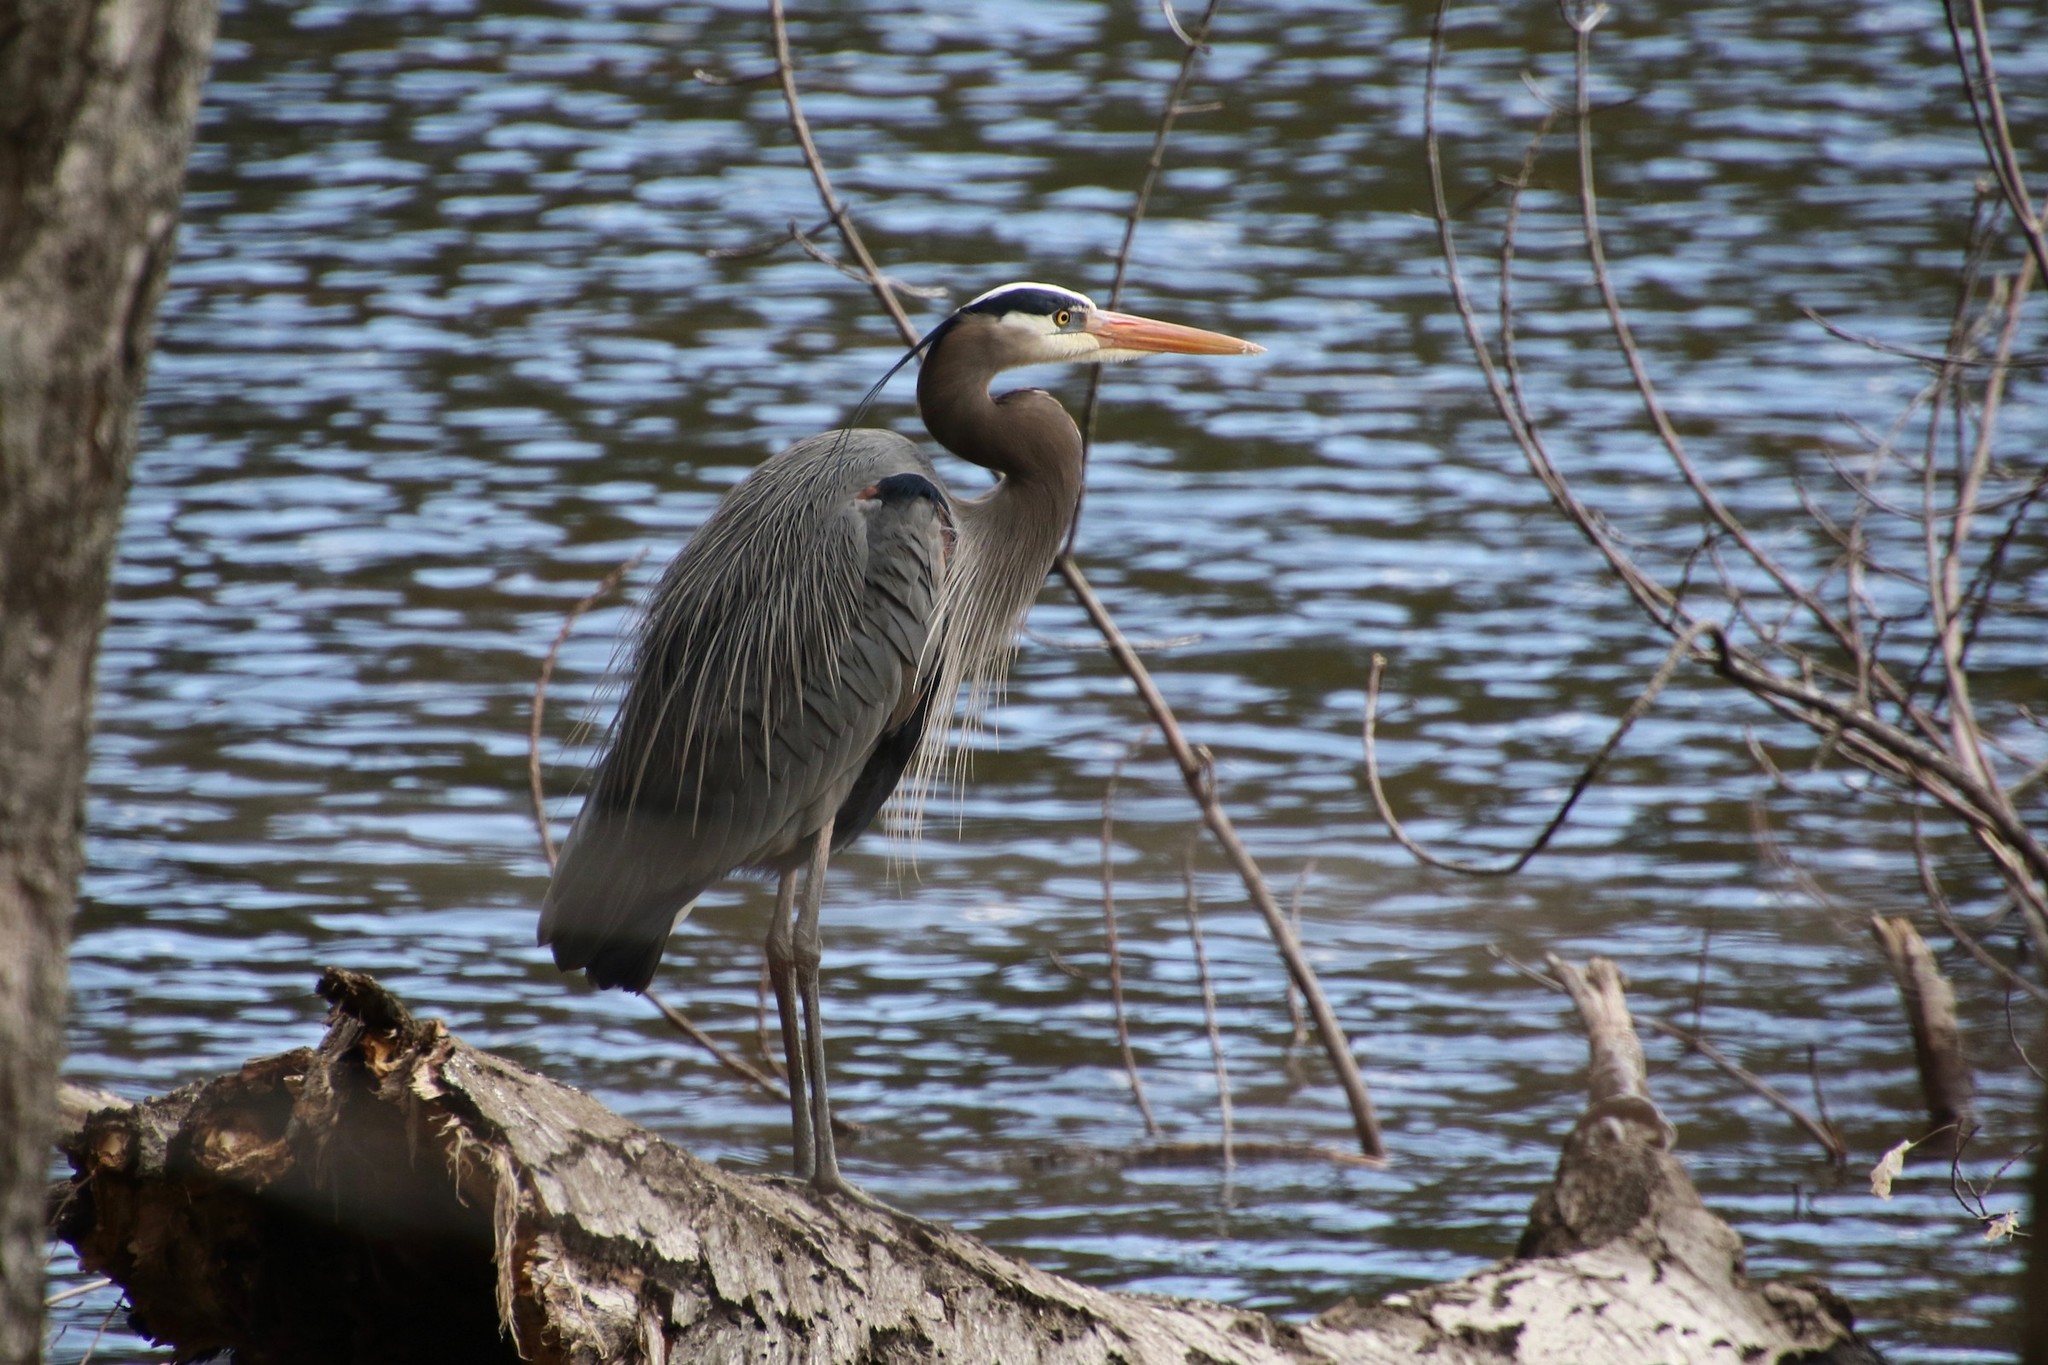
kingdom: Animalia
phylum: Chordata
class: Aves
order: Pelecaniformes
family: Ardeidae
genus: Ardea
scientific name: Ardea herodias
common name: Great blue heron
